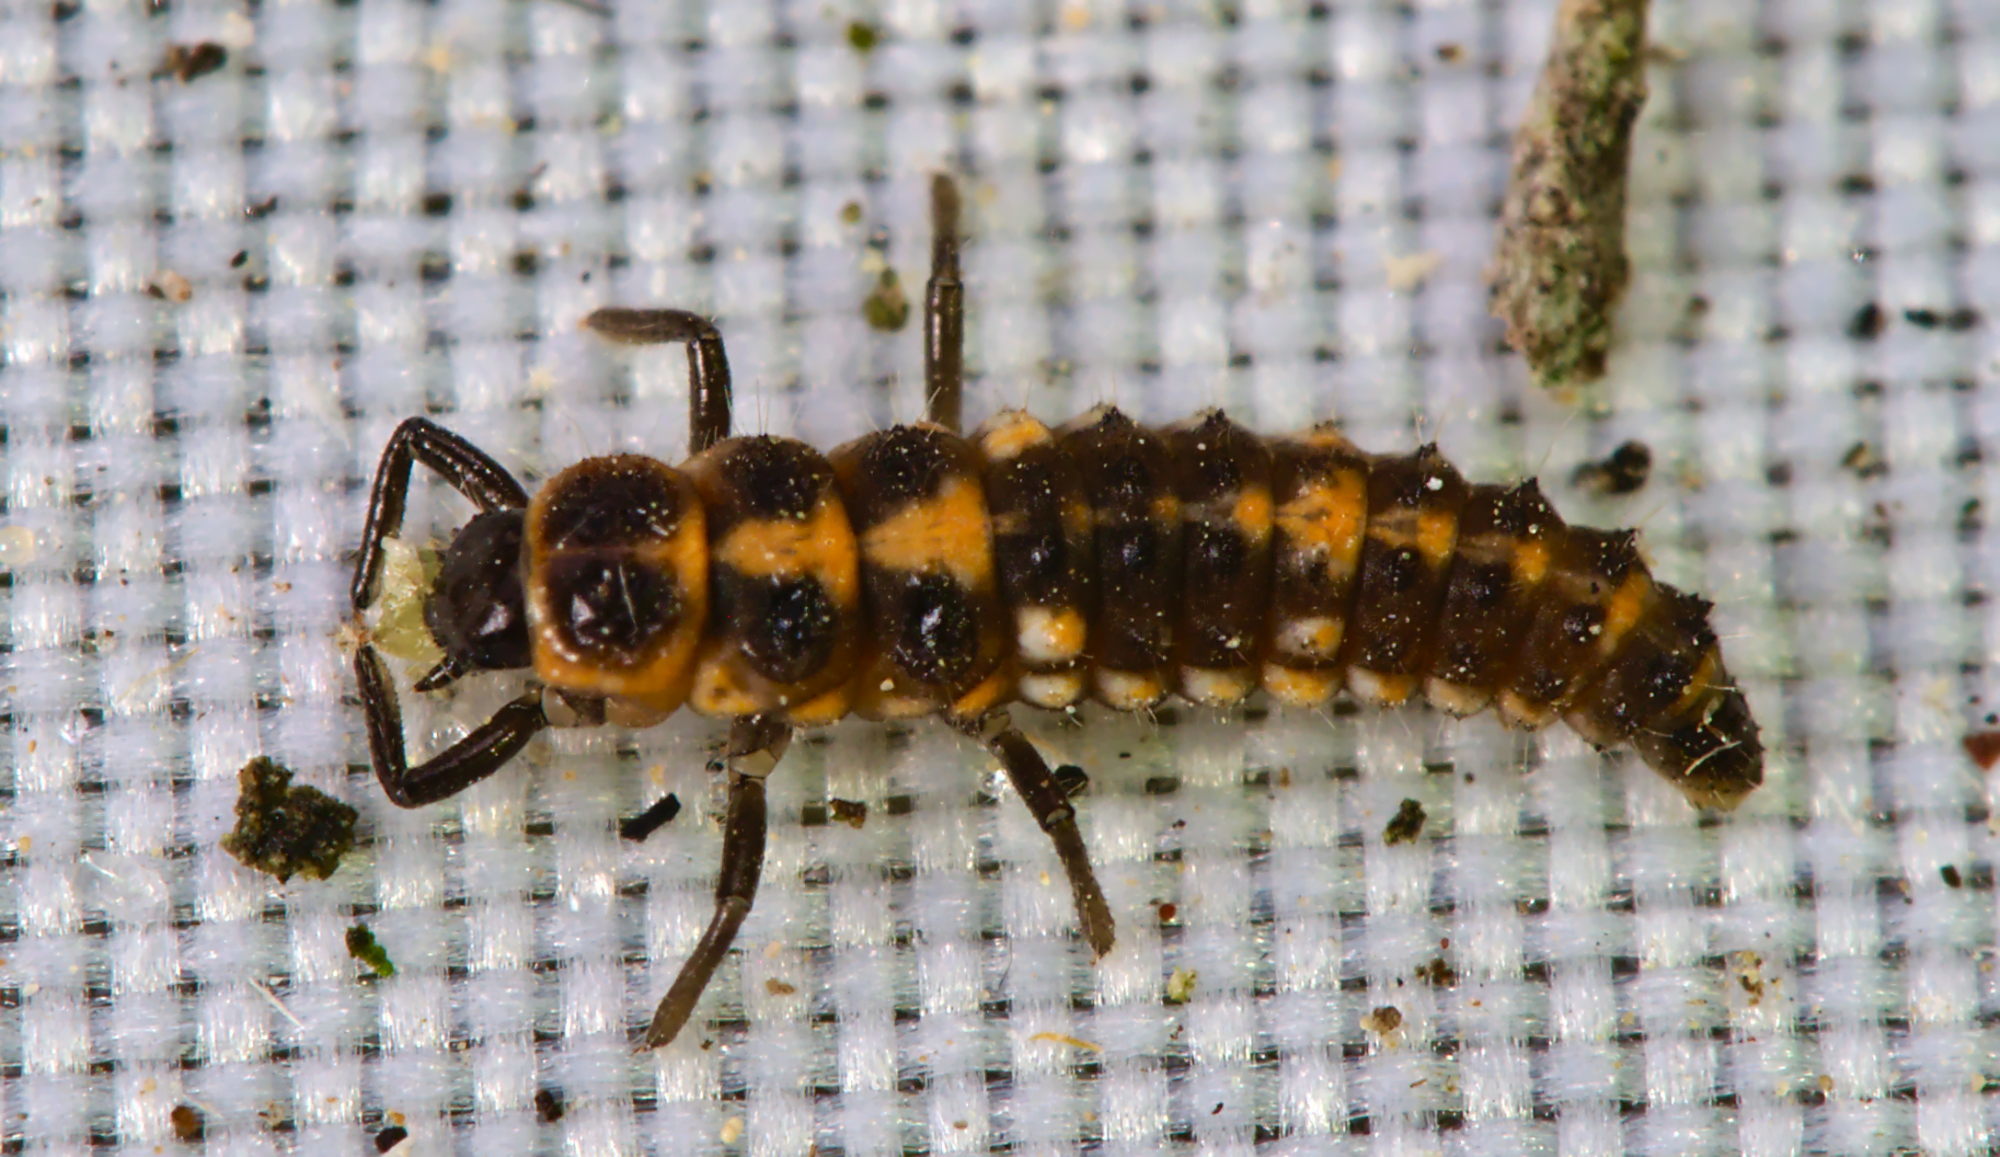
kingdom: Animalia
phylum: Arthropoda
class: Insecta
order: Coleoptera
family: Coccinellidae
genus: Oenopia
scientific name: Oenopia conglobata
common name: Ladybird beetle
